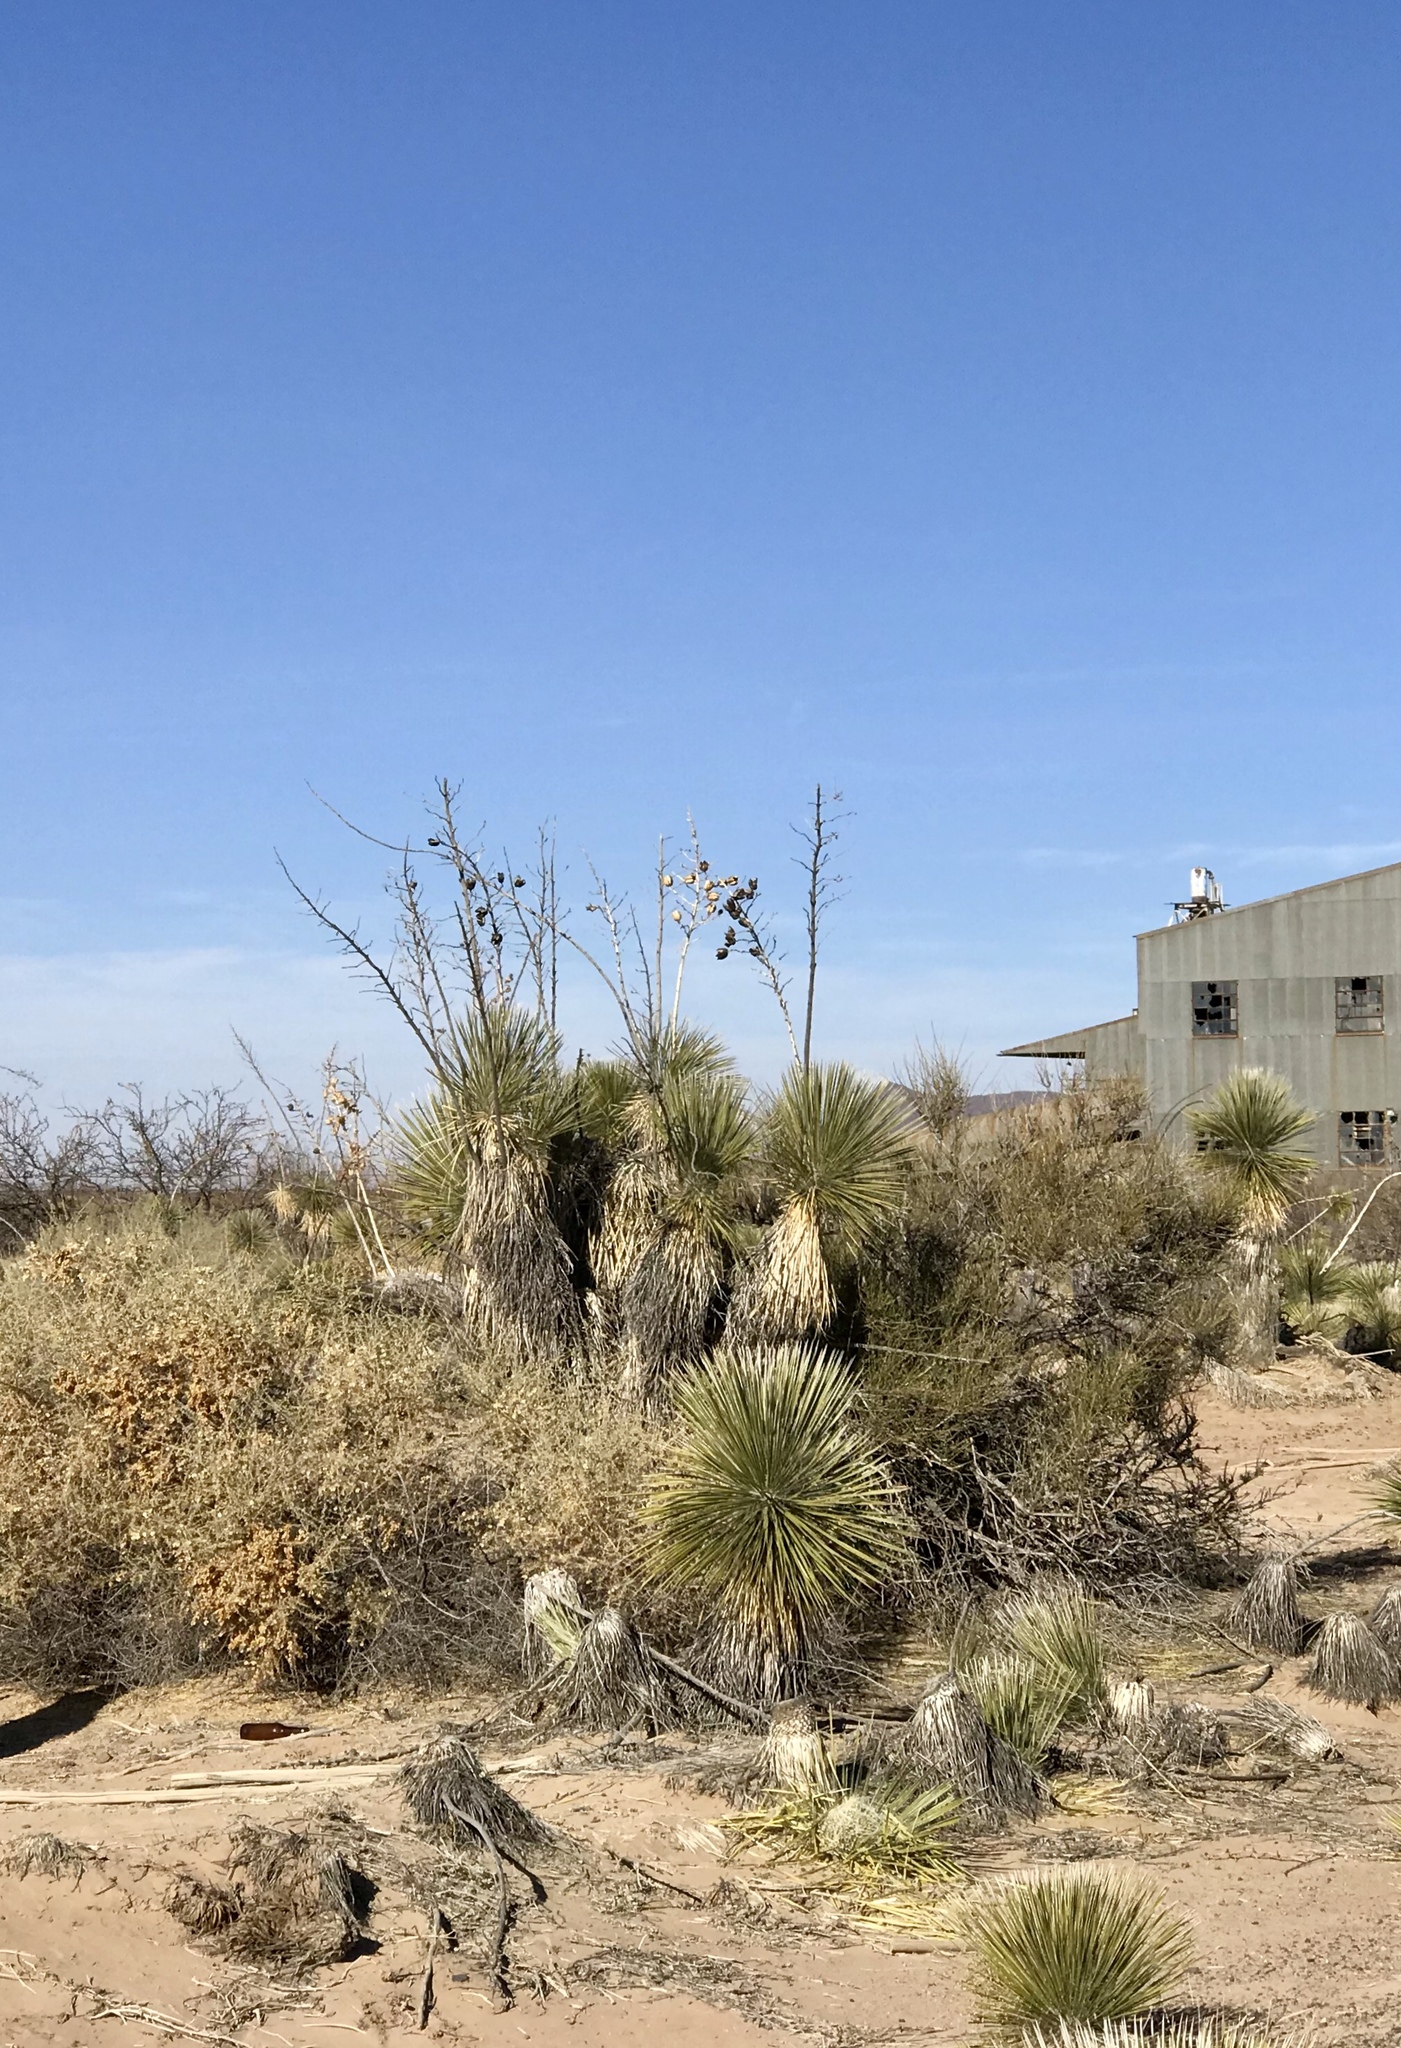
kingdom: Plantae
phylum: Tracheophyta
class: Liliopsida
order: Asparagales
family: Asparagaceae
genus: Yucca
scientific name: Yucca elata
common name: Palmella
